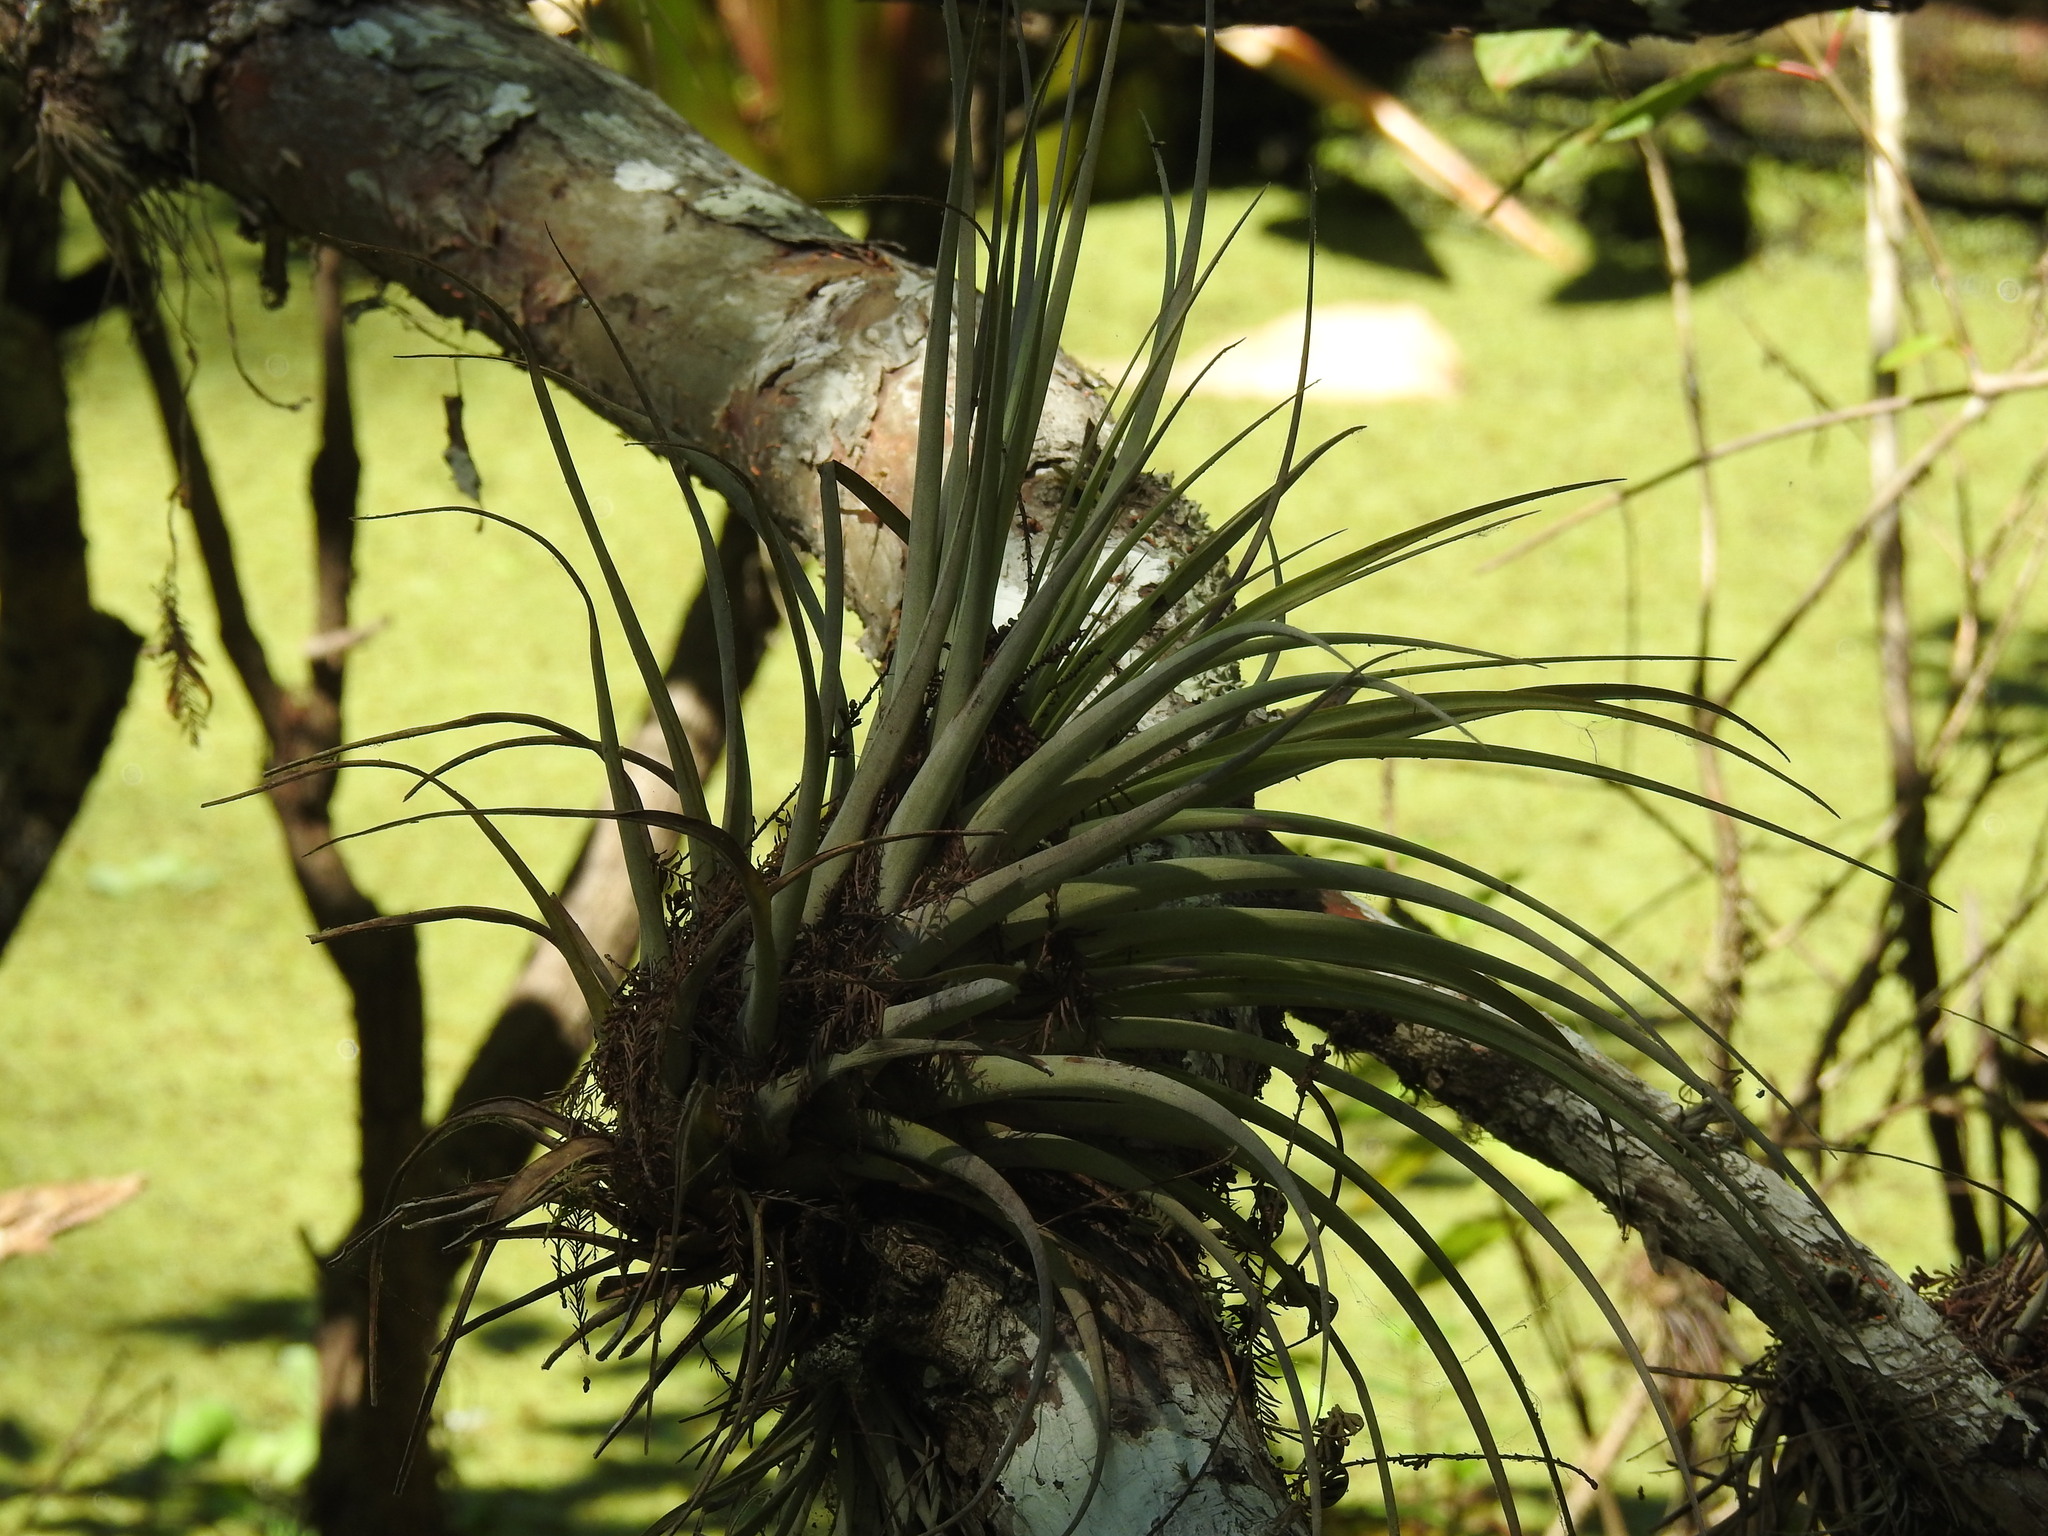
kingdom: Plantae
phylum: Tracheophyta
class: Liliopsida
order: Poales
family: Bromeliaceae
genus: Tillandsia
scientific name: Tillandsia fasciculata
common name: Giant airplant
